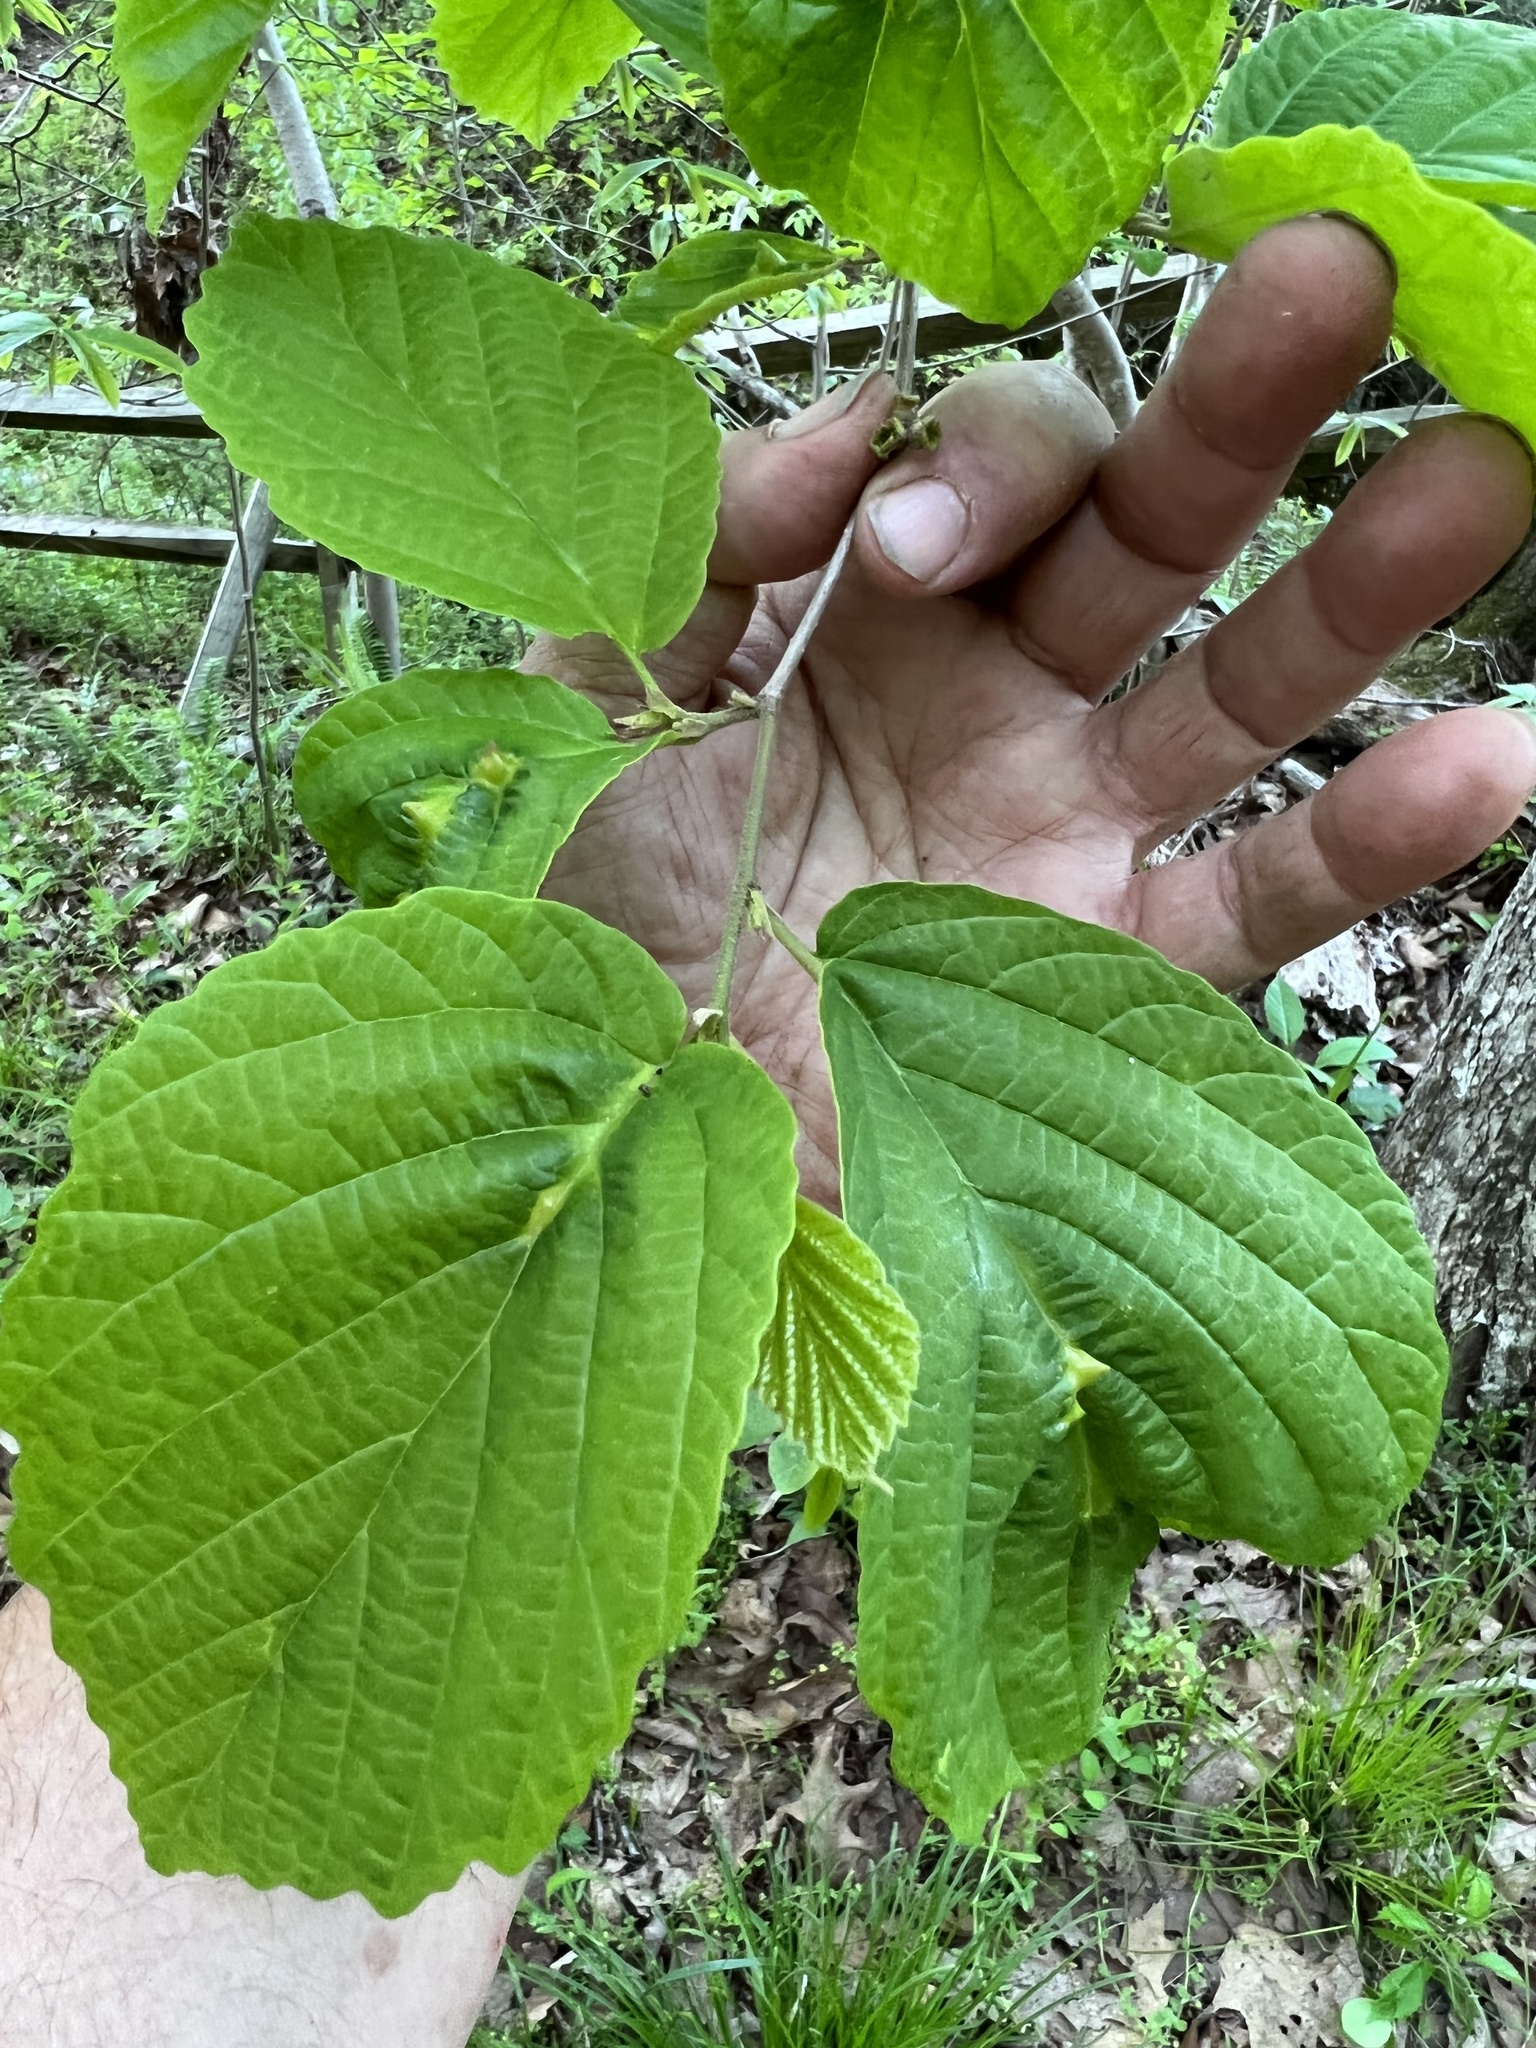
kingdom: Animalia
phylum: Arthropoda
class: Insecta
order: Hemiptera
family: Aphididae
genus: Hormaphis
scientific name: Hormaphis hamamelidis
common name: Witch-hazel cone gall aphid
